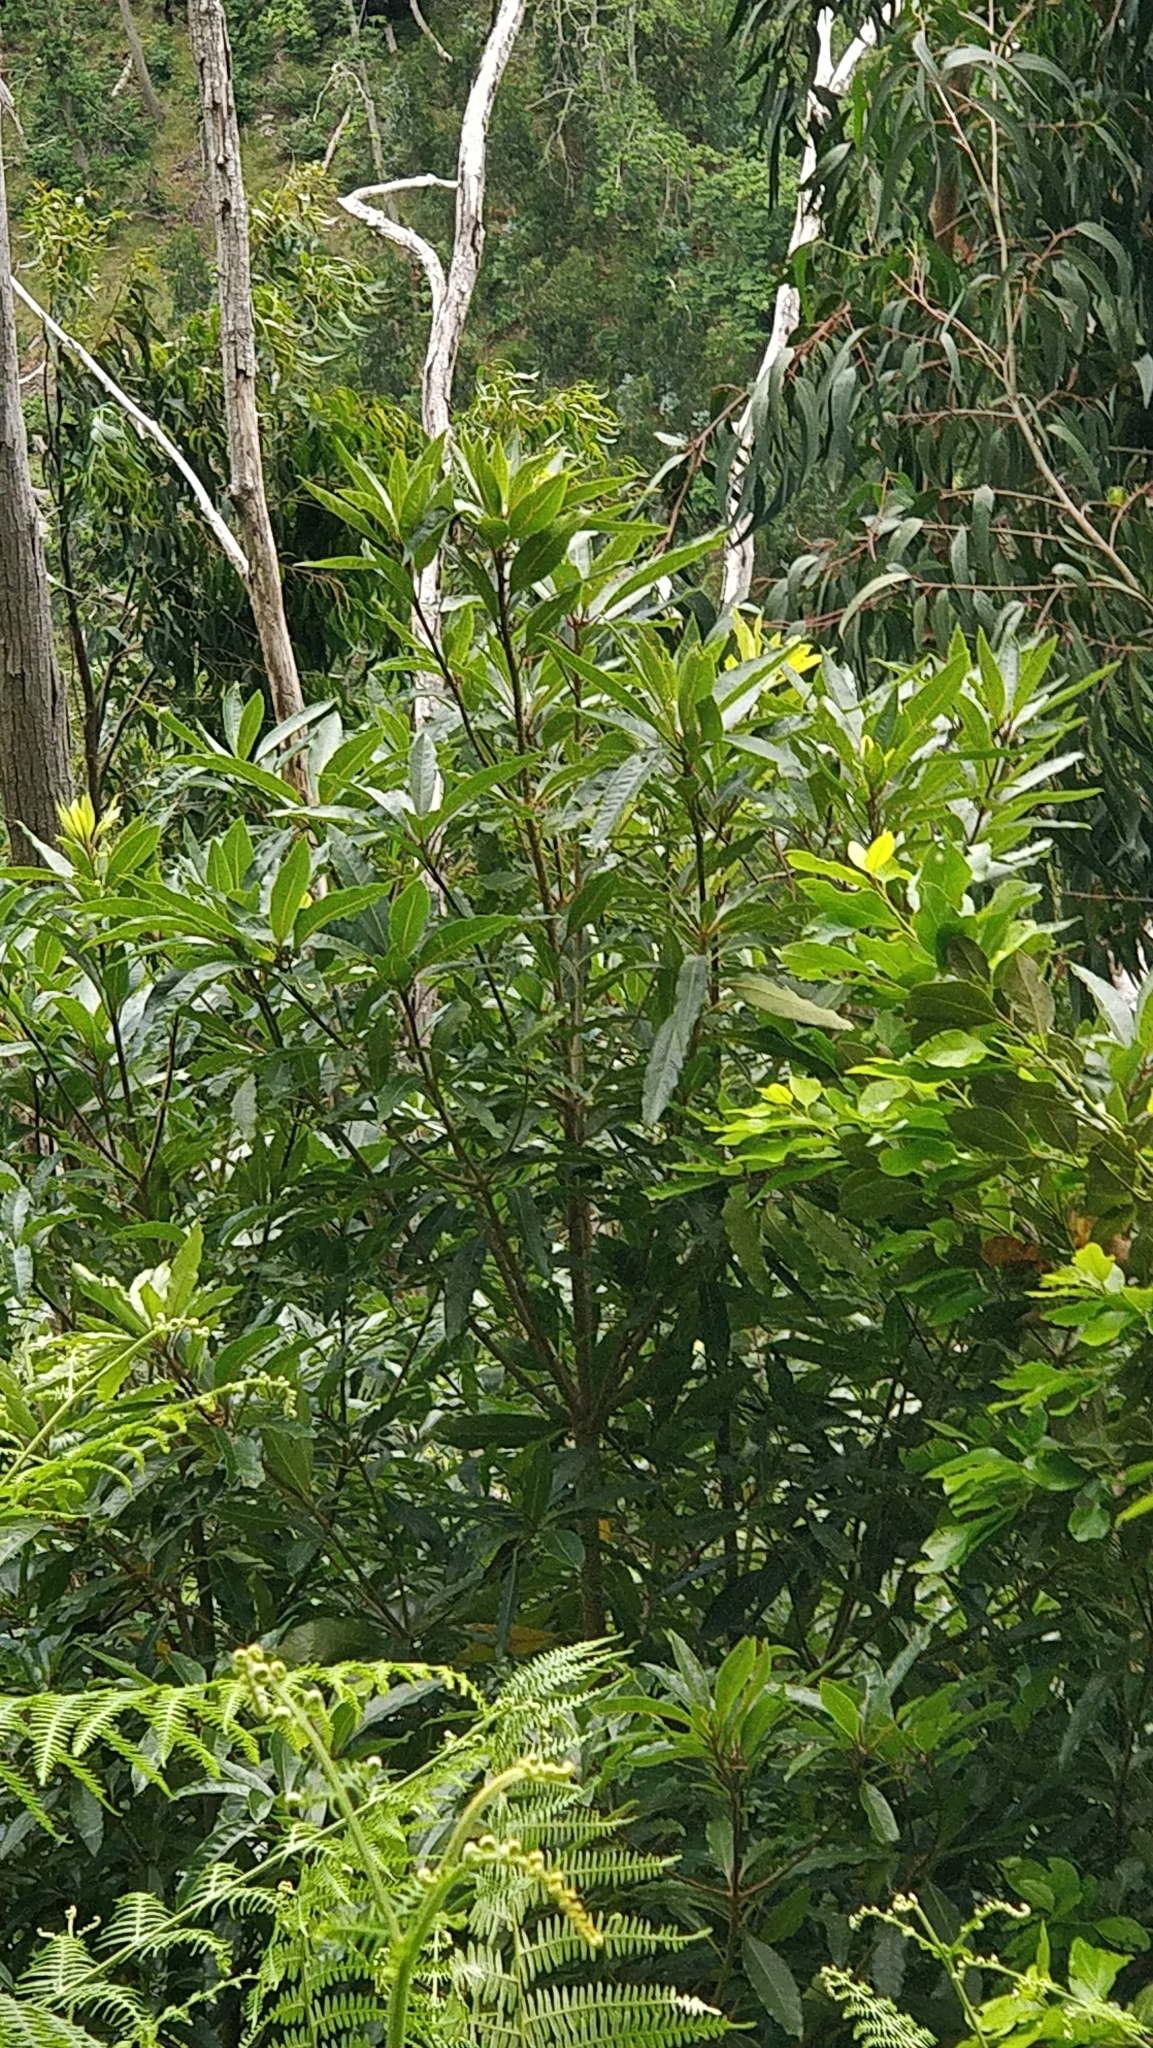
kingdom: Plantae
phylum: Tracheophyta
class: Magnoliopsida
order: Apiales
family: Pittosporaceae
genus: Pittosporum
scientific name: Pittosporum undulatum
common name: Australian cheesewood
